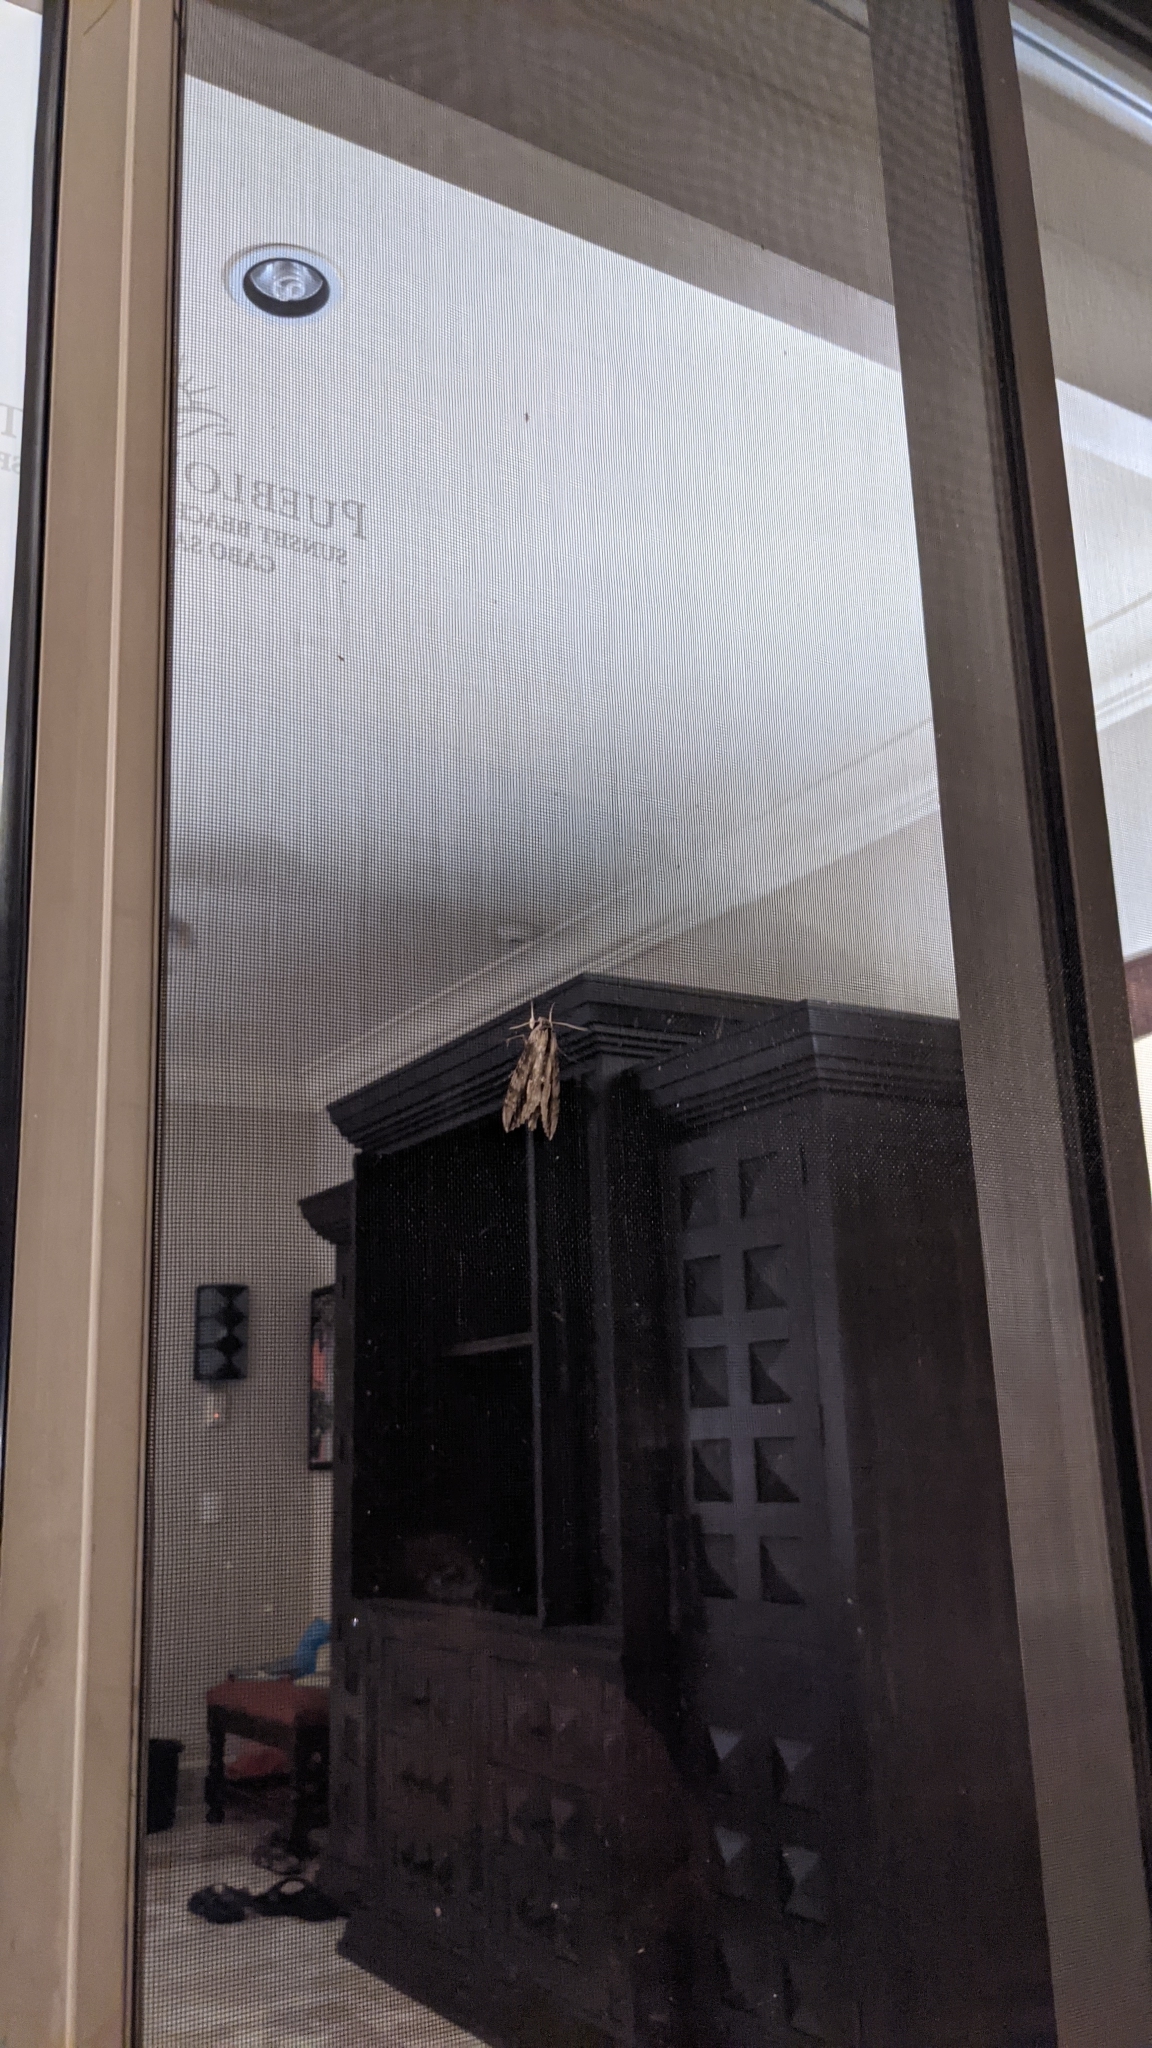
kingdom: Animalia
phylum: Arthropoda
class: Insecta
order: Lepidoptera
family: Sphingidae
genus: Erinnyis
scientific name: Erinnyis ello
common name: Ello sphinx
